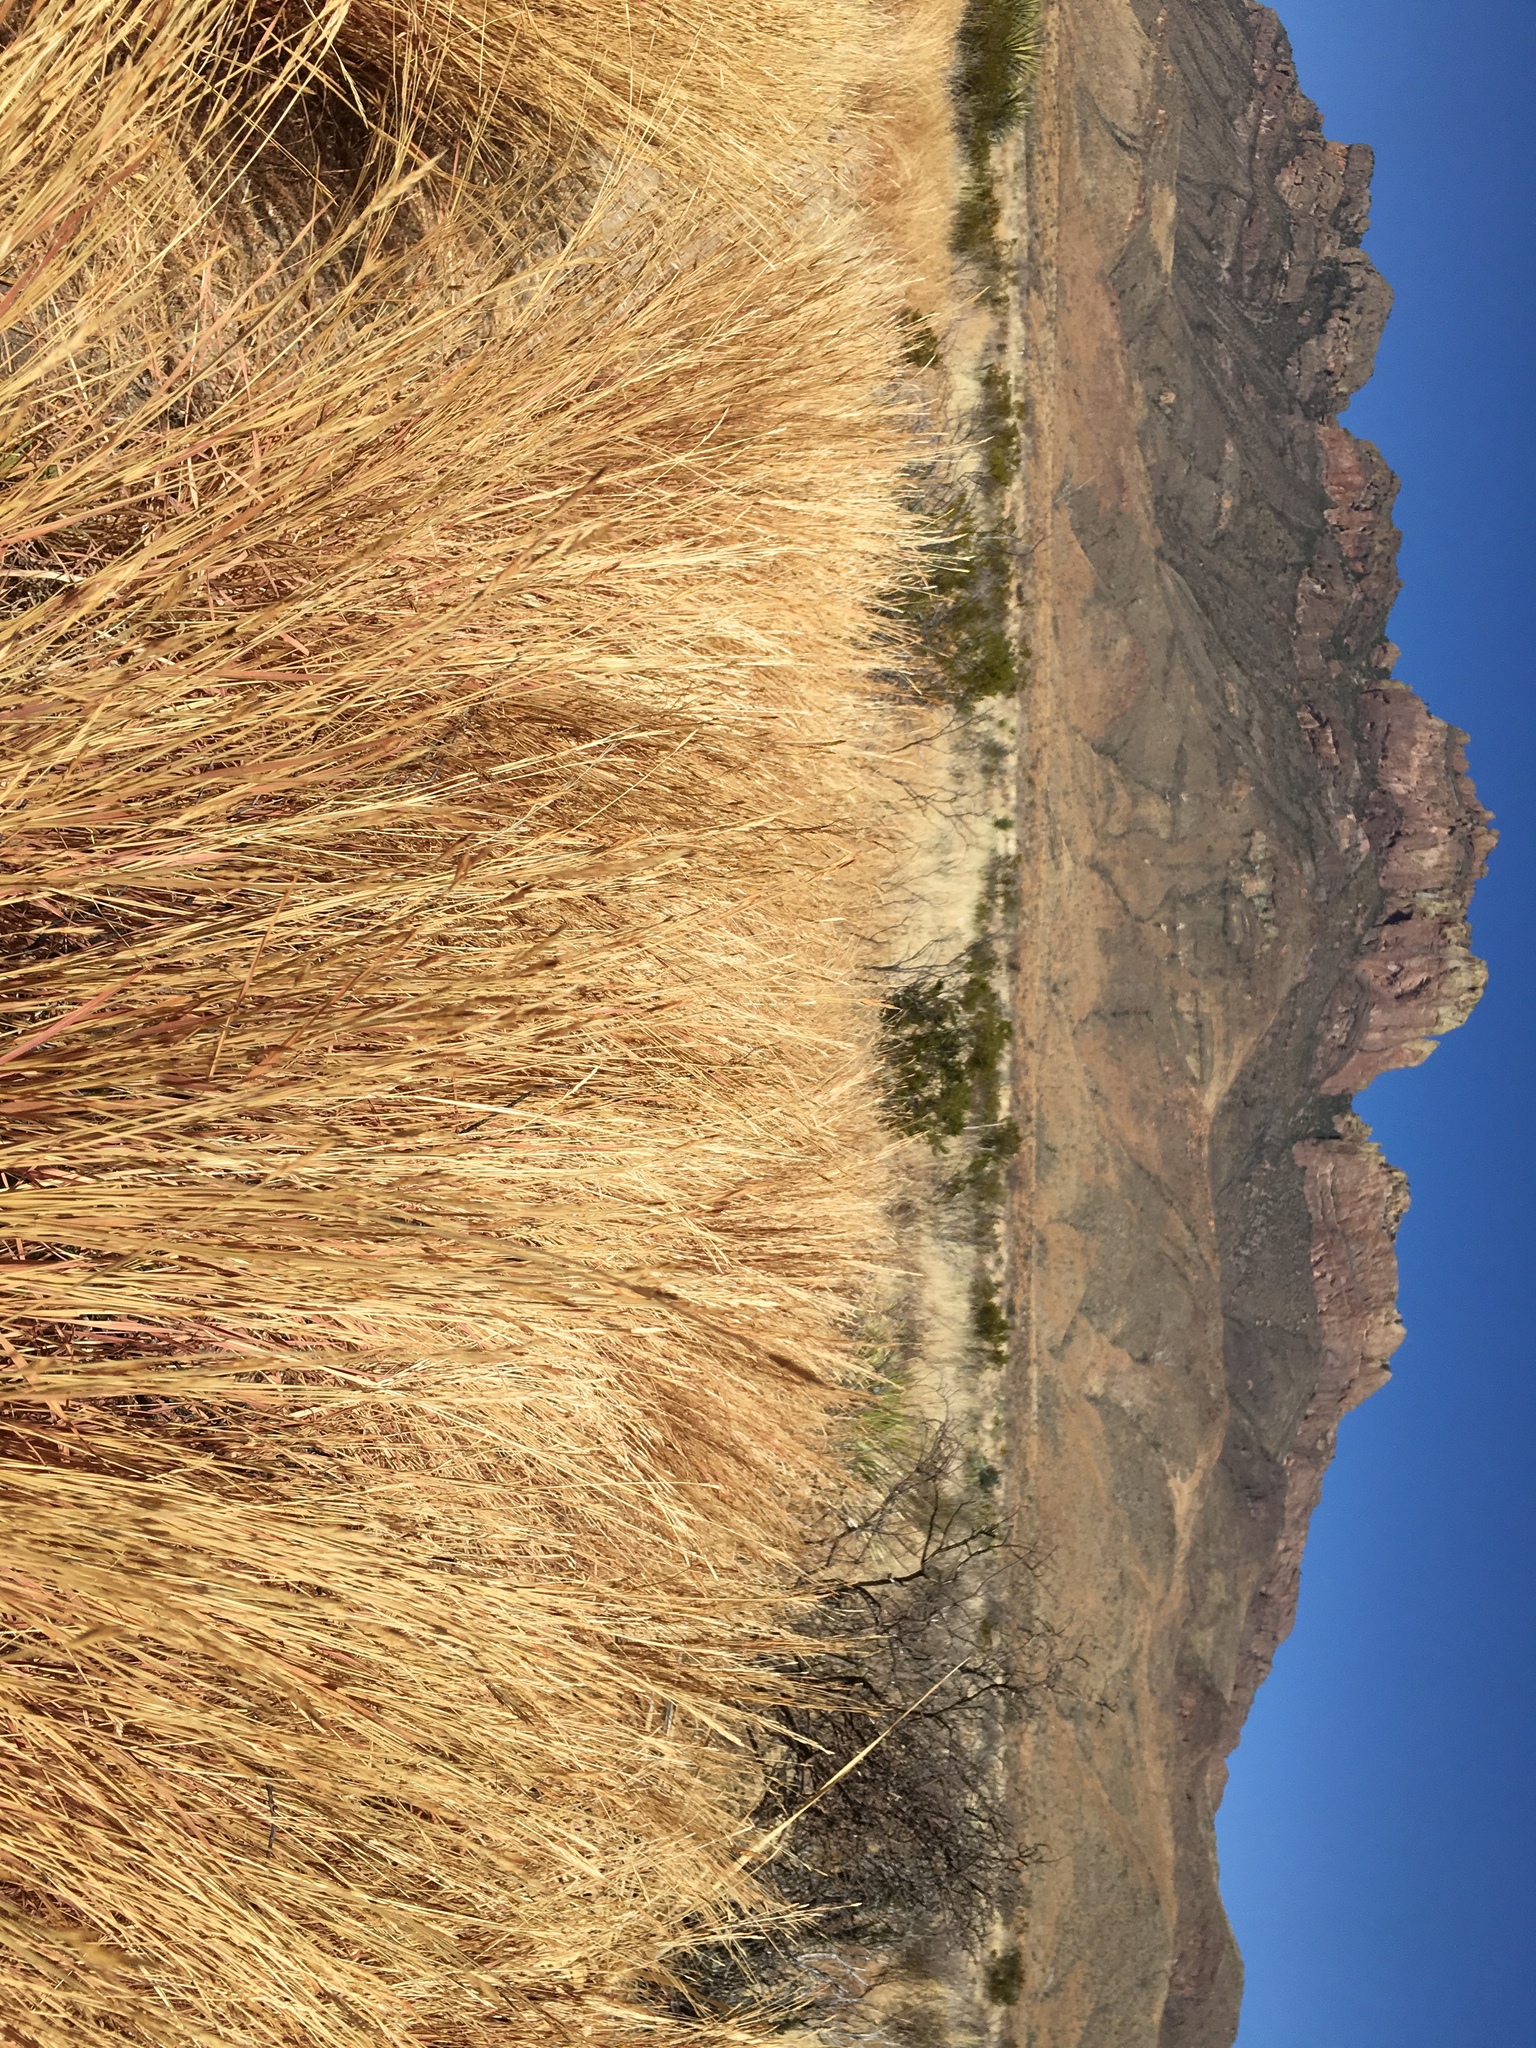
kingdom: Plantae
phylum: Tracheophyta
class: Liliopsida
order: Poales
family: Poaceae
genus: Heteropogon
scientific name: Heteropogon contortus
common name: Tanglehead
